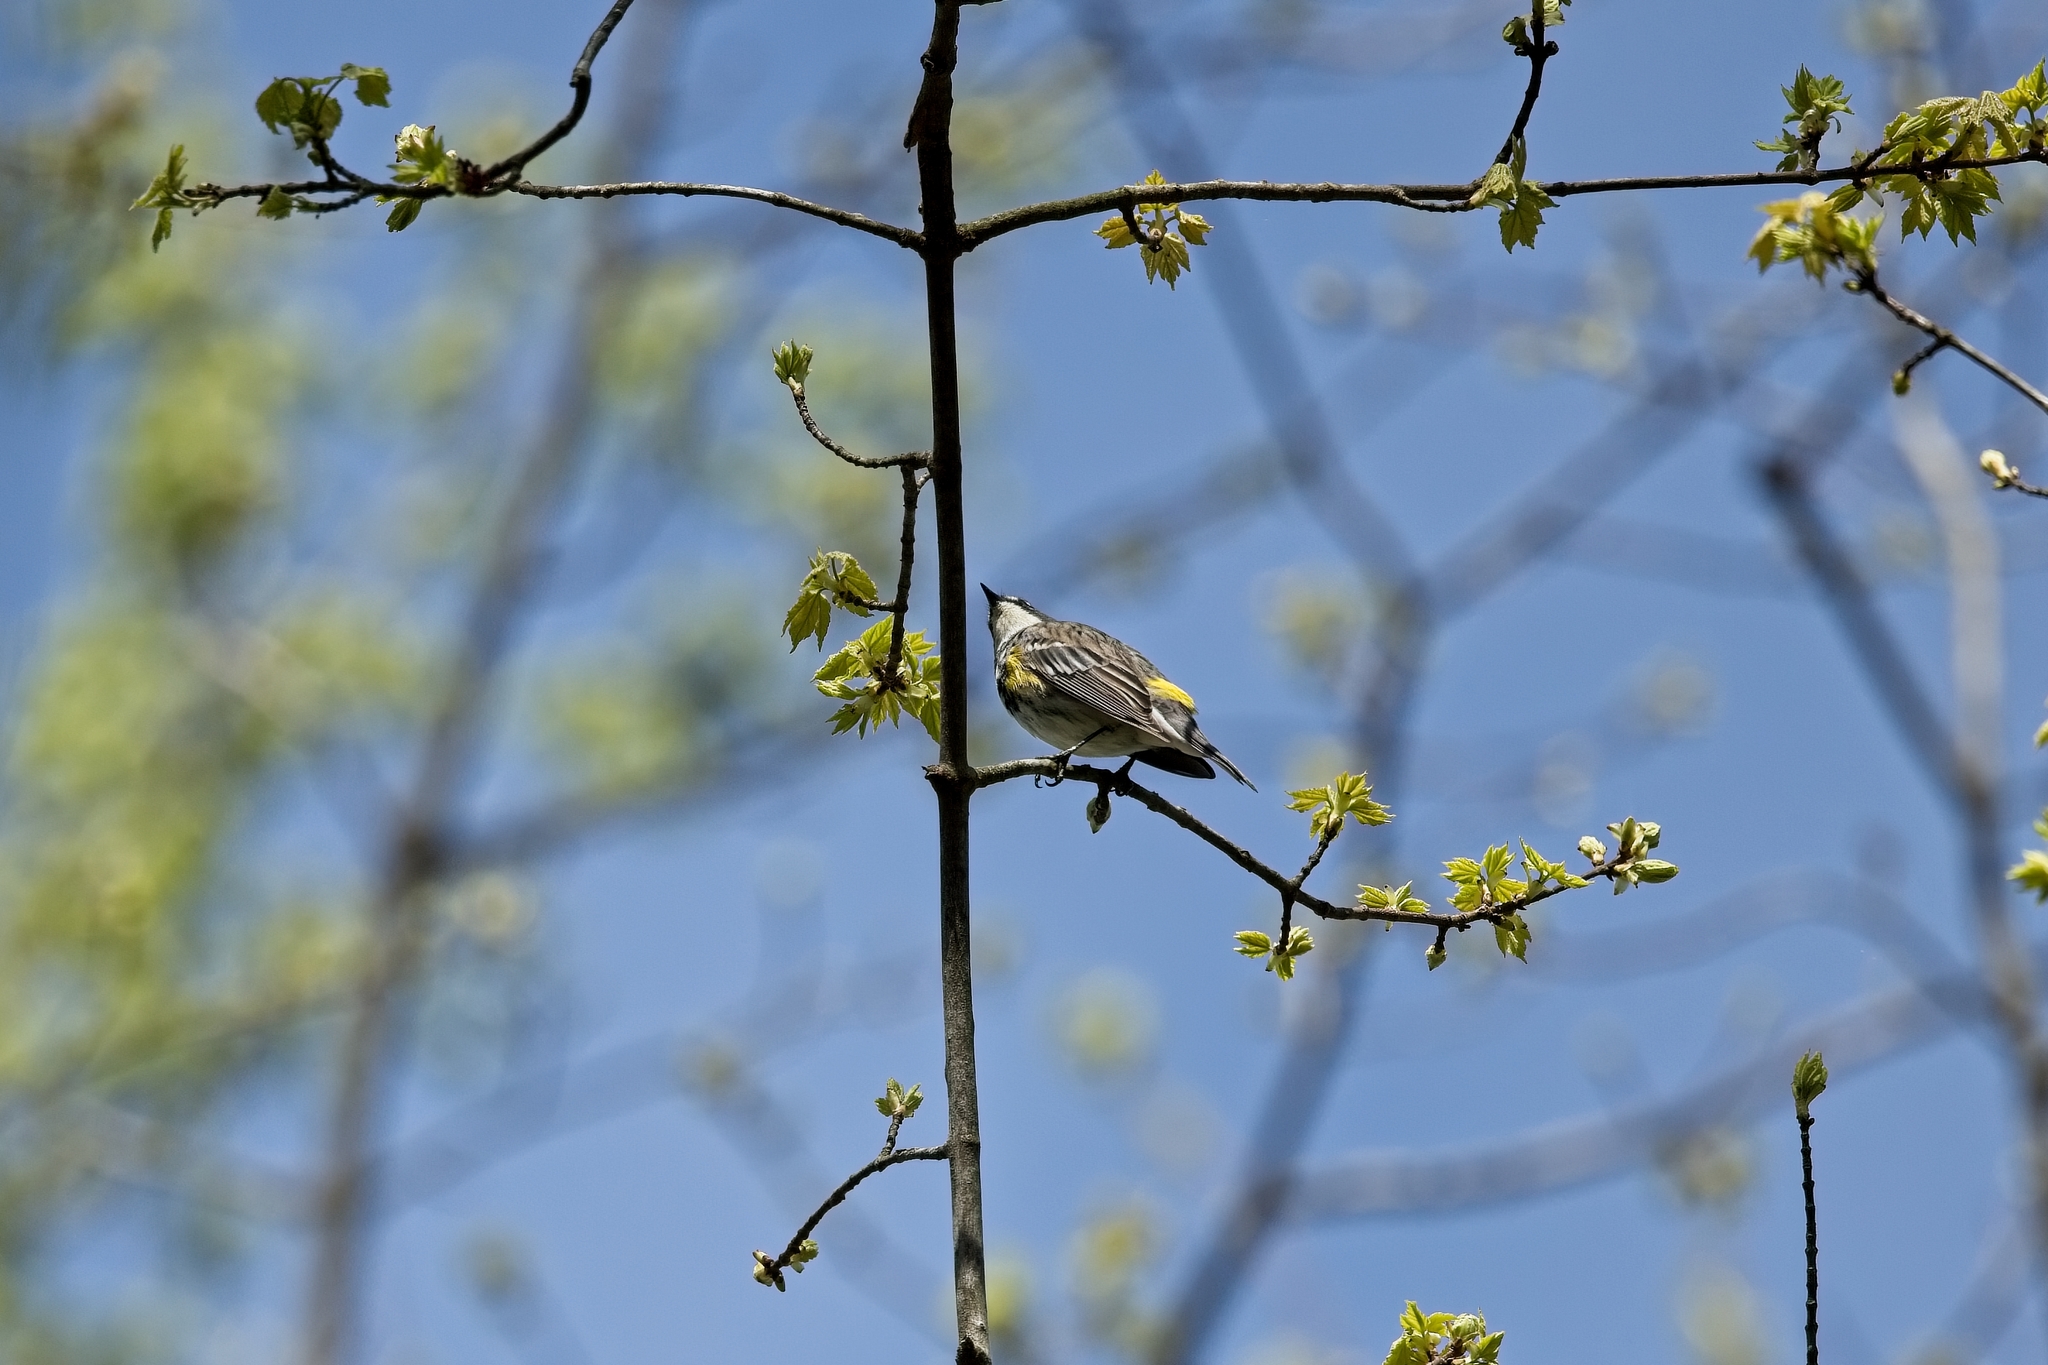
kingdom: Animalia
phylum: Chordata
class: Aves
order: Passeriformes
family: Parulidae
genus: Setophaga
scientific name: Setophaga coronata
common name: Myrtle warbler
